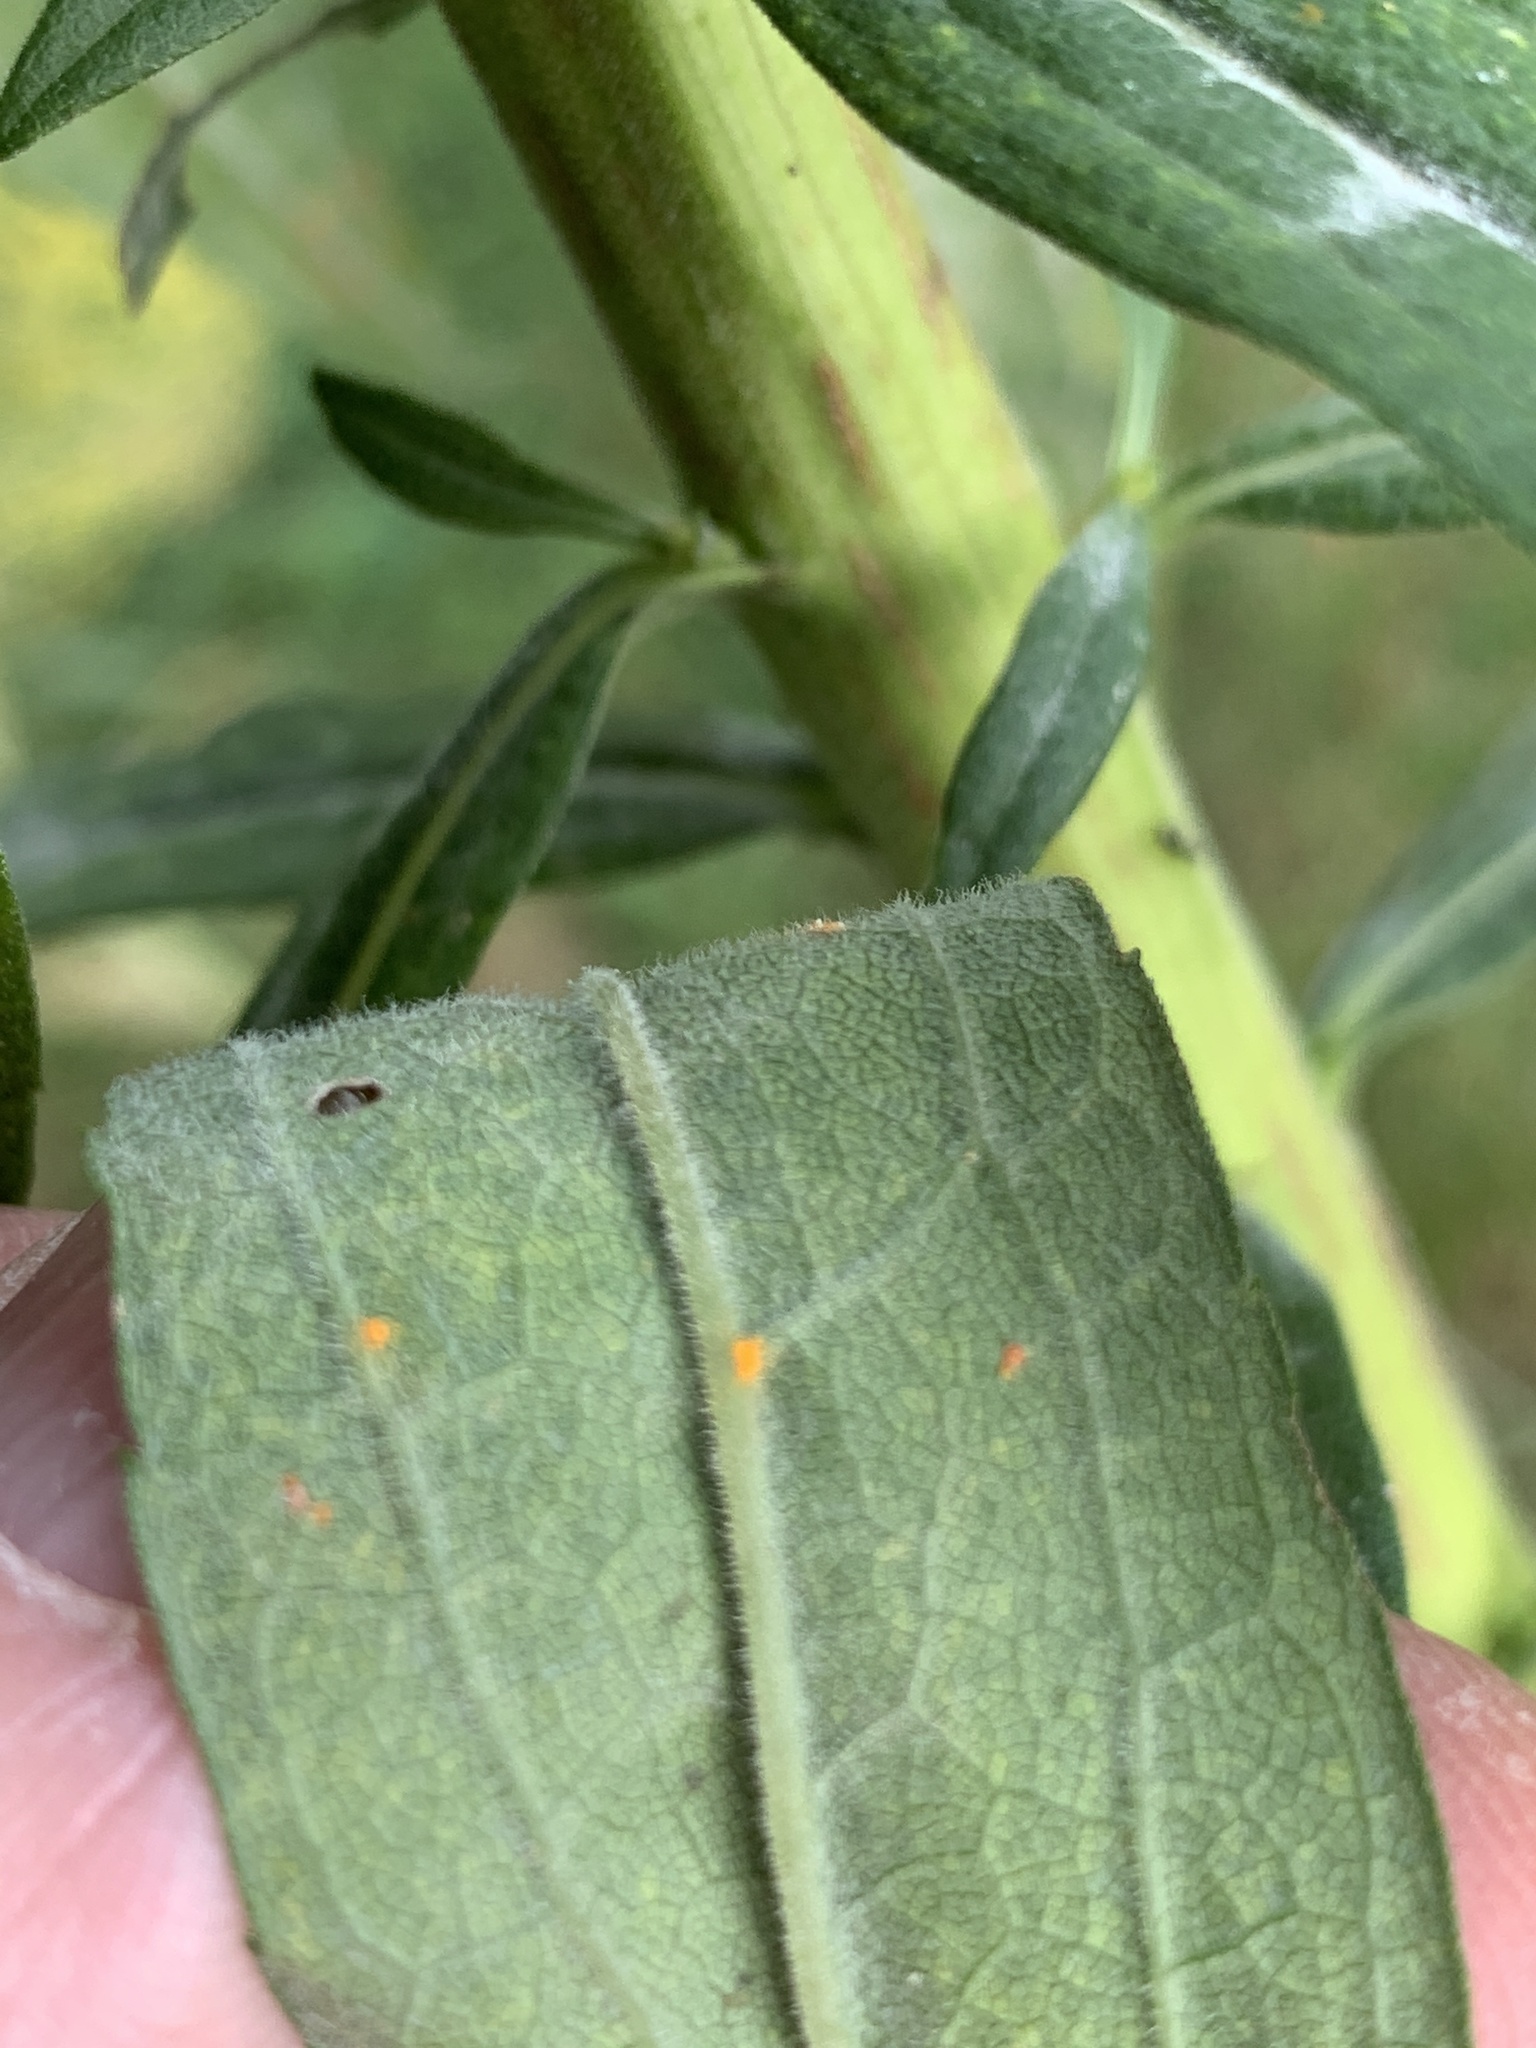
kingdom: Plantae
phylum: Tracheophyta
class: Magnoliopsida
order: Asterales
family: Asteraceae
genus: Solidago
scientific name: Solidago altissima
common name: Late goldenrod
